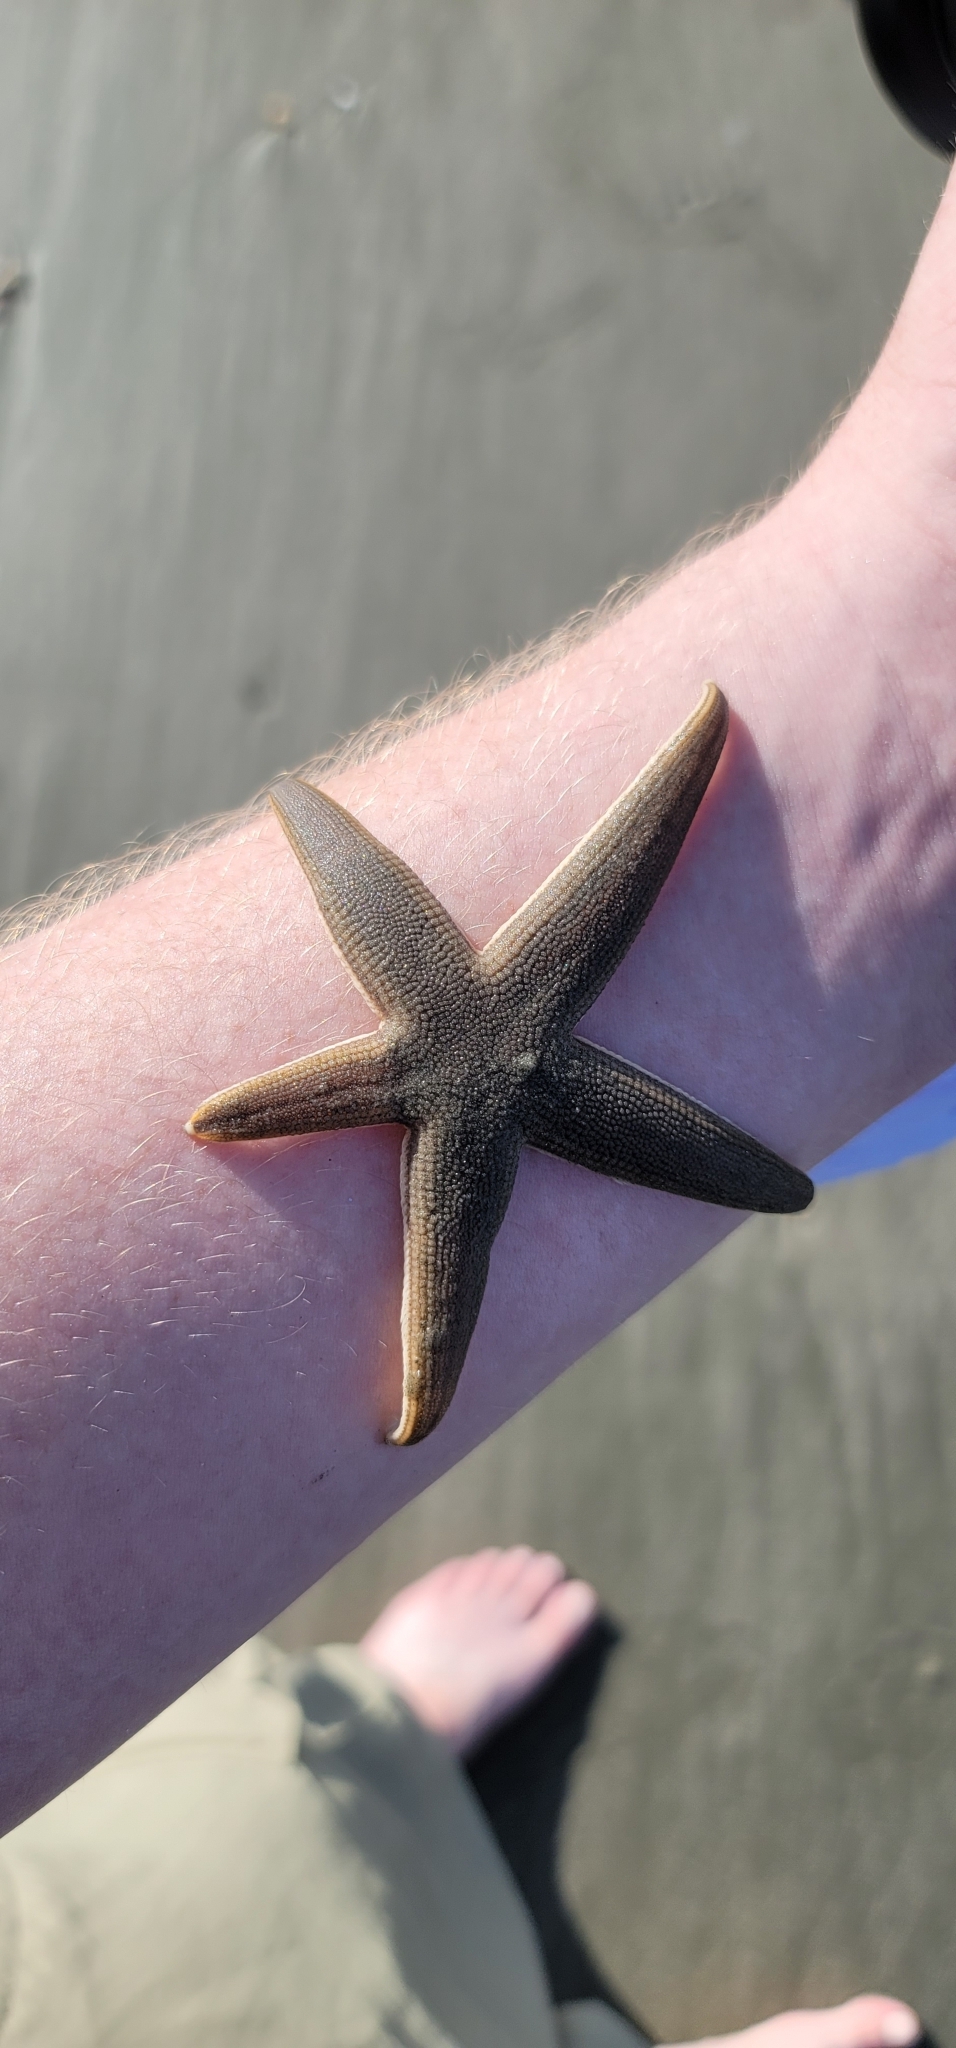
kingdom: Animalia
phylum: Echinodermata
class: Asteroidea
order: Paxillosida
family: Luidiidae
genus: Luidia
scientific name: Luidia clathrata
